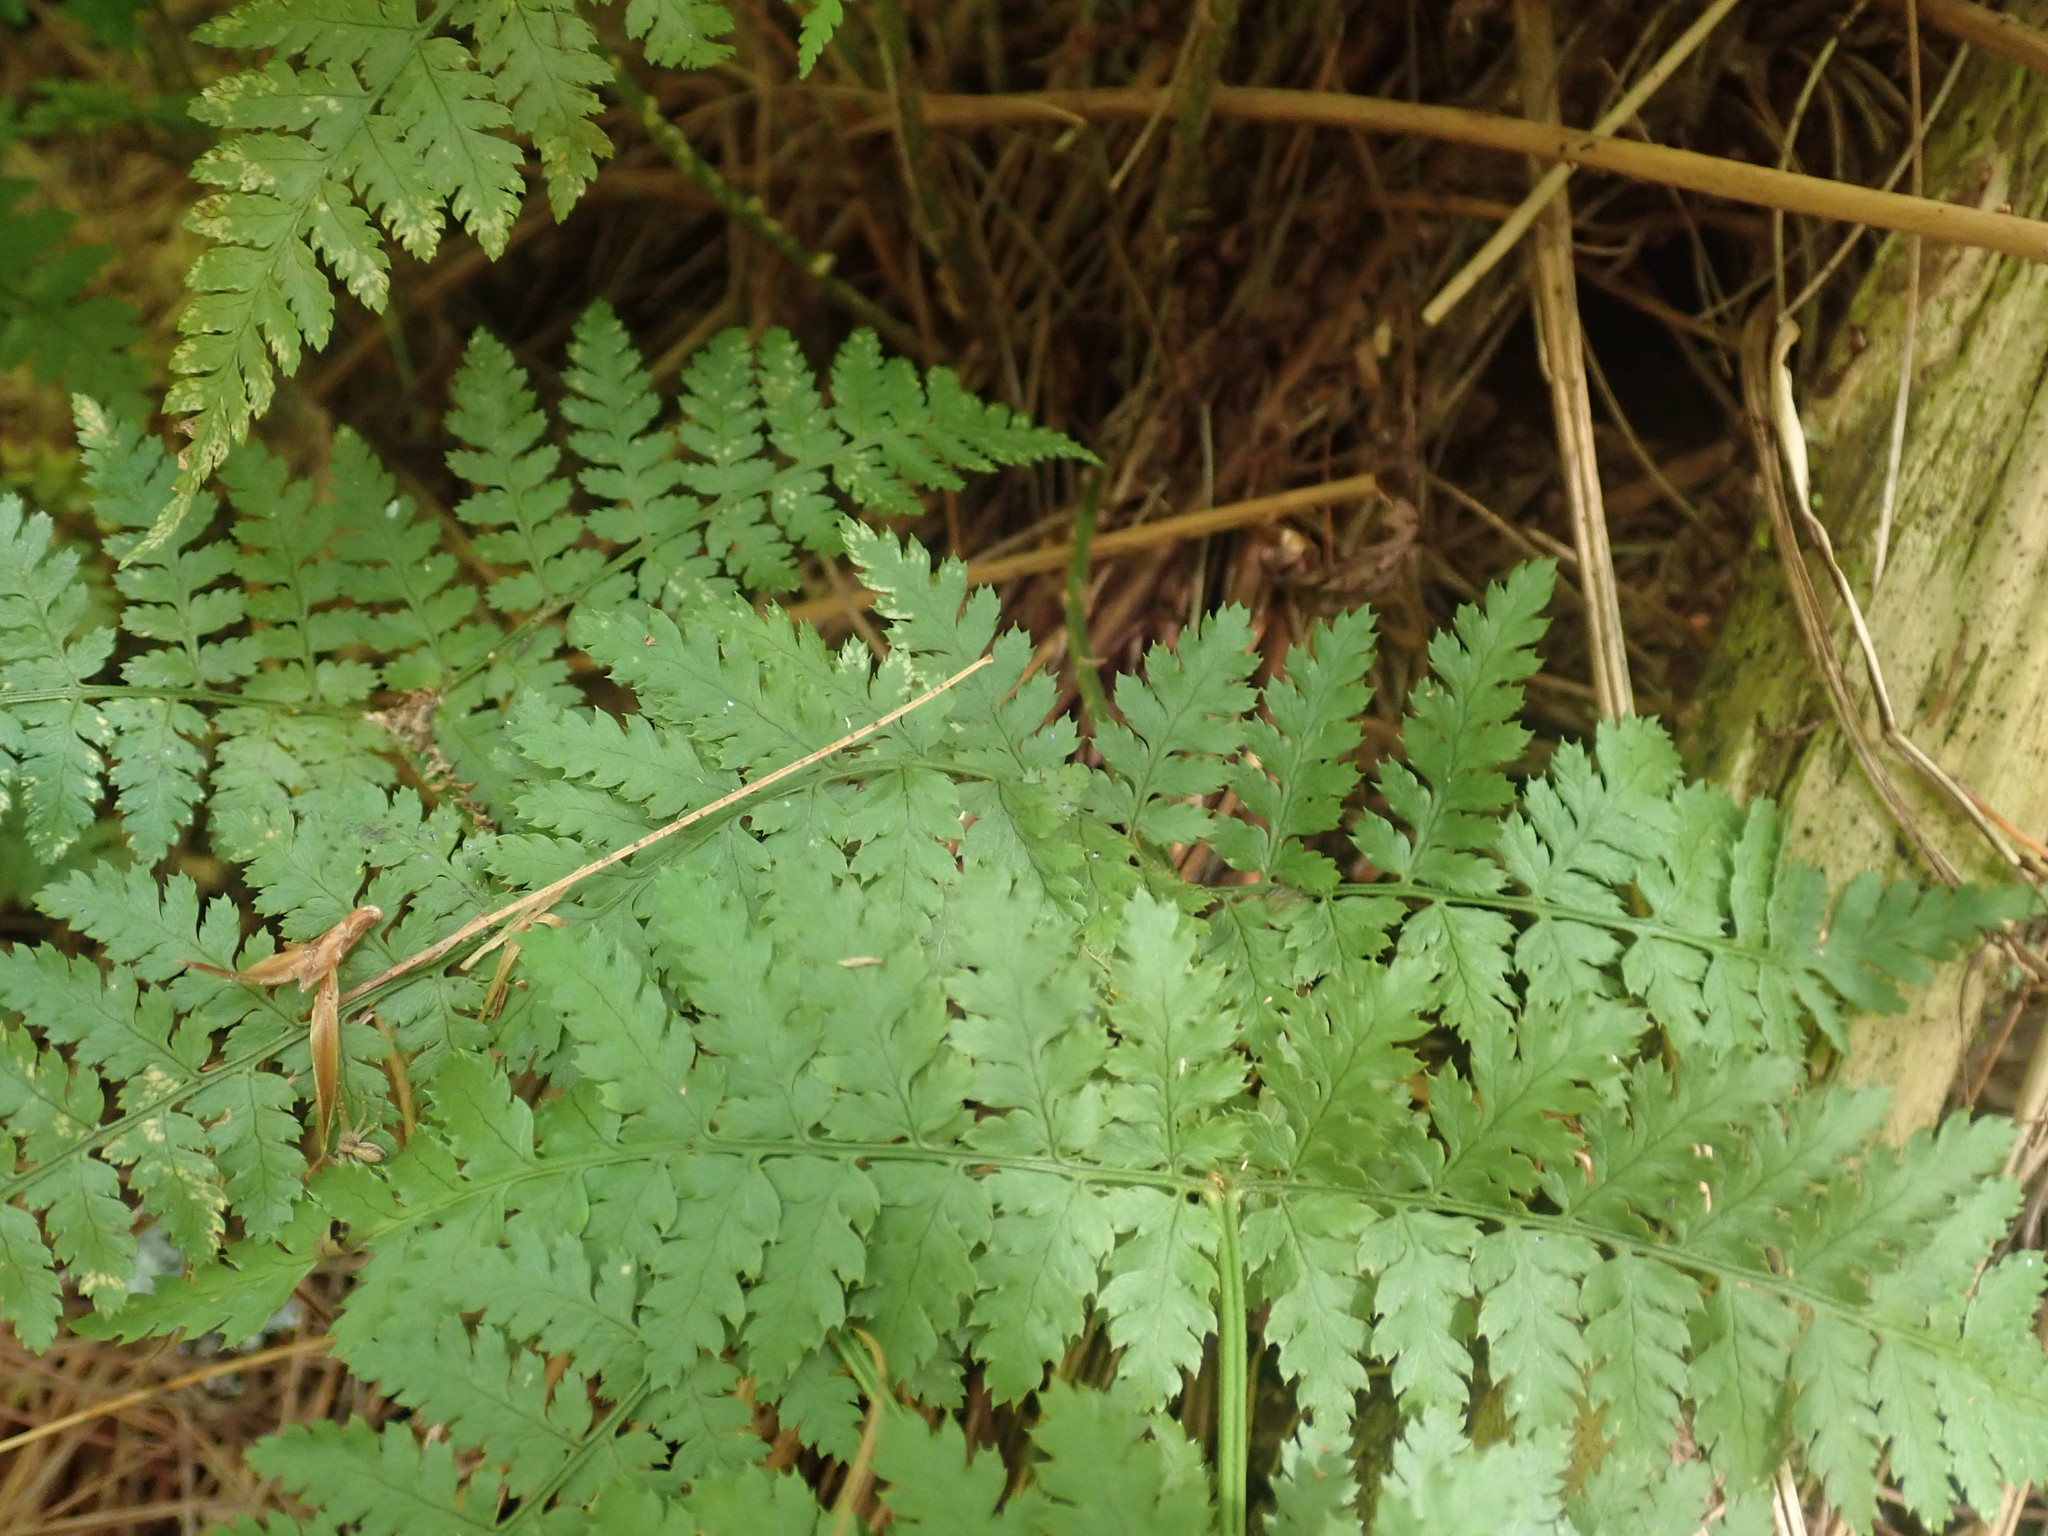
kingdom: Plantae
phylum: Tracheophyta
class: Polypodiopsida
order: Polypodiales
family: Dryopteridaceae
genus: Dryopteris
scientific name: Dryopteris intermedia
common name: Evergreen wood fern
